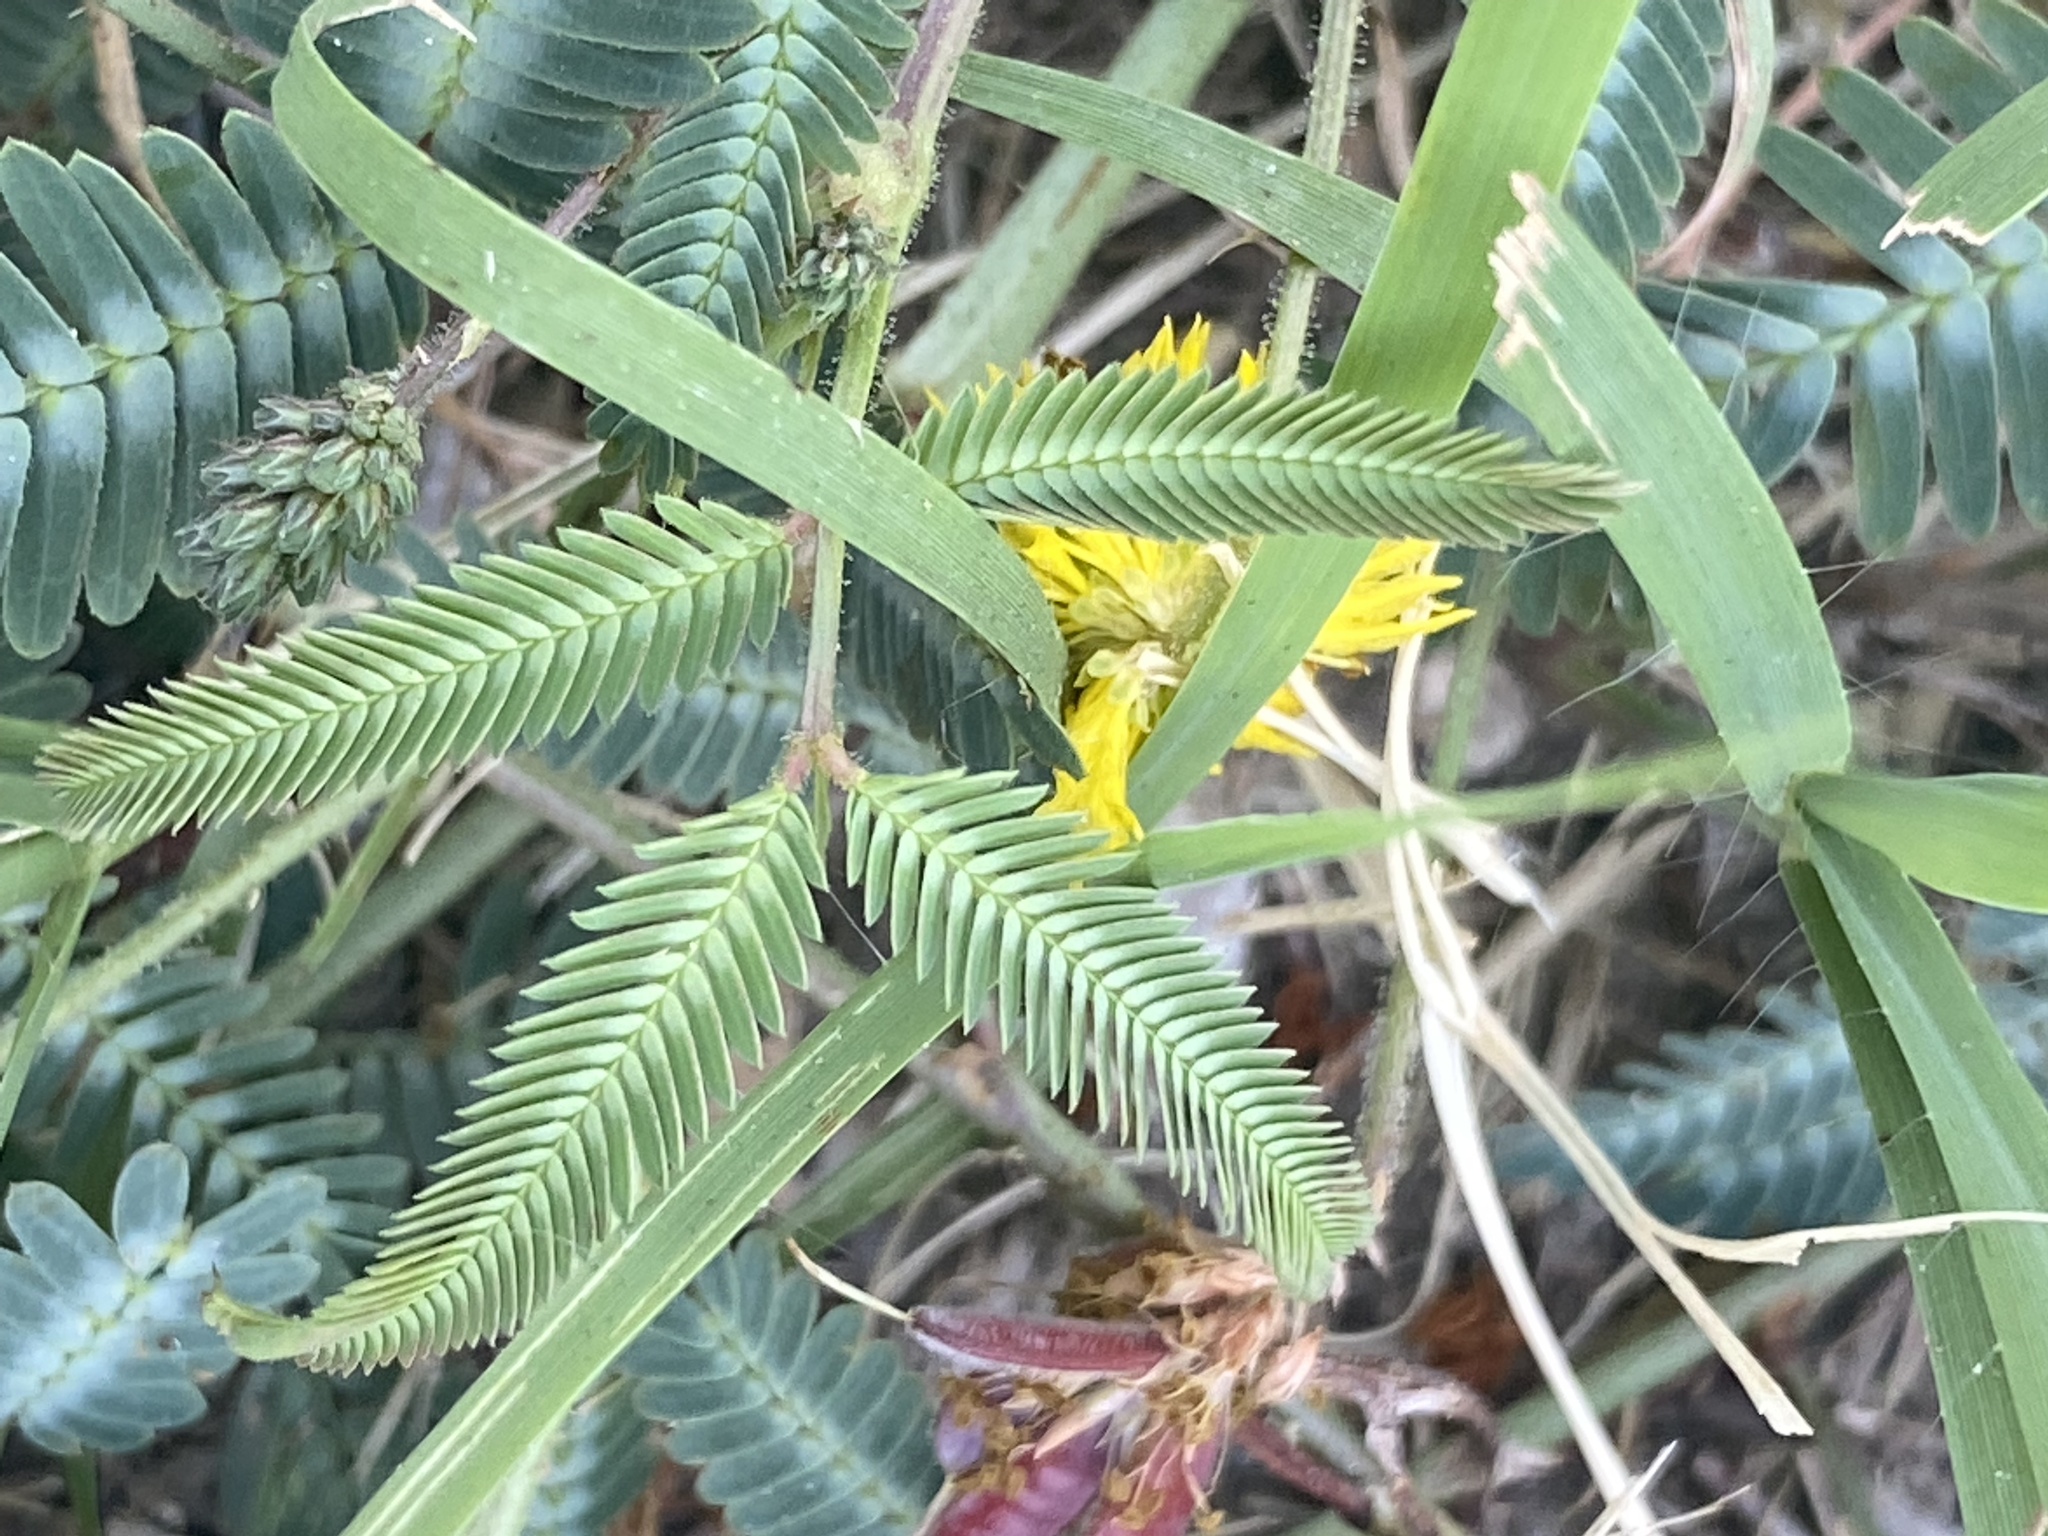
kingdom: Plantae
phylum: Tracheophyta
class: Magnoliopsida
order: Fabales
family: Fabaceae
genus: Neptunia
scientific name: Neptunia pubescens
